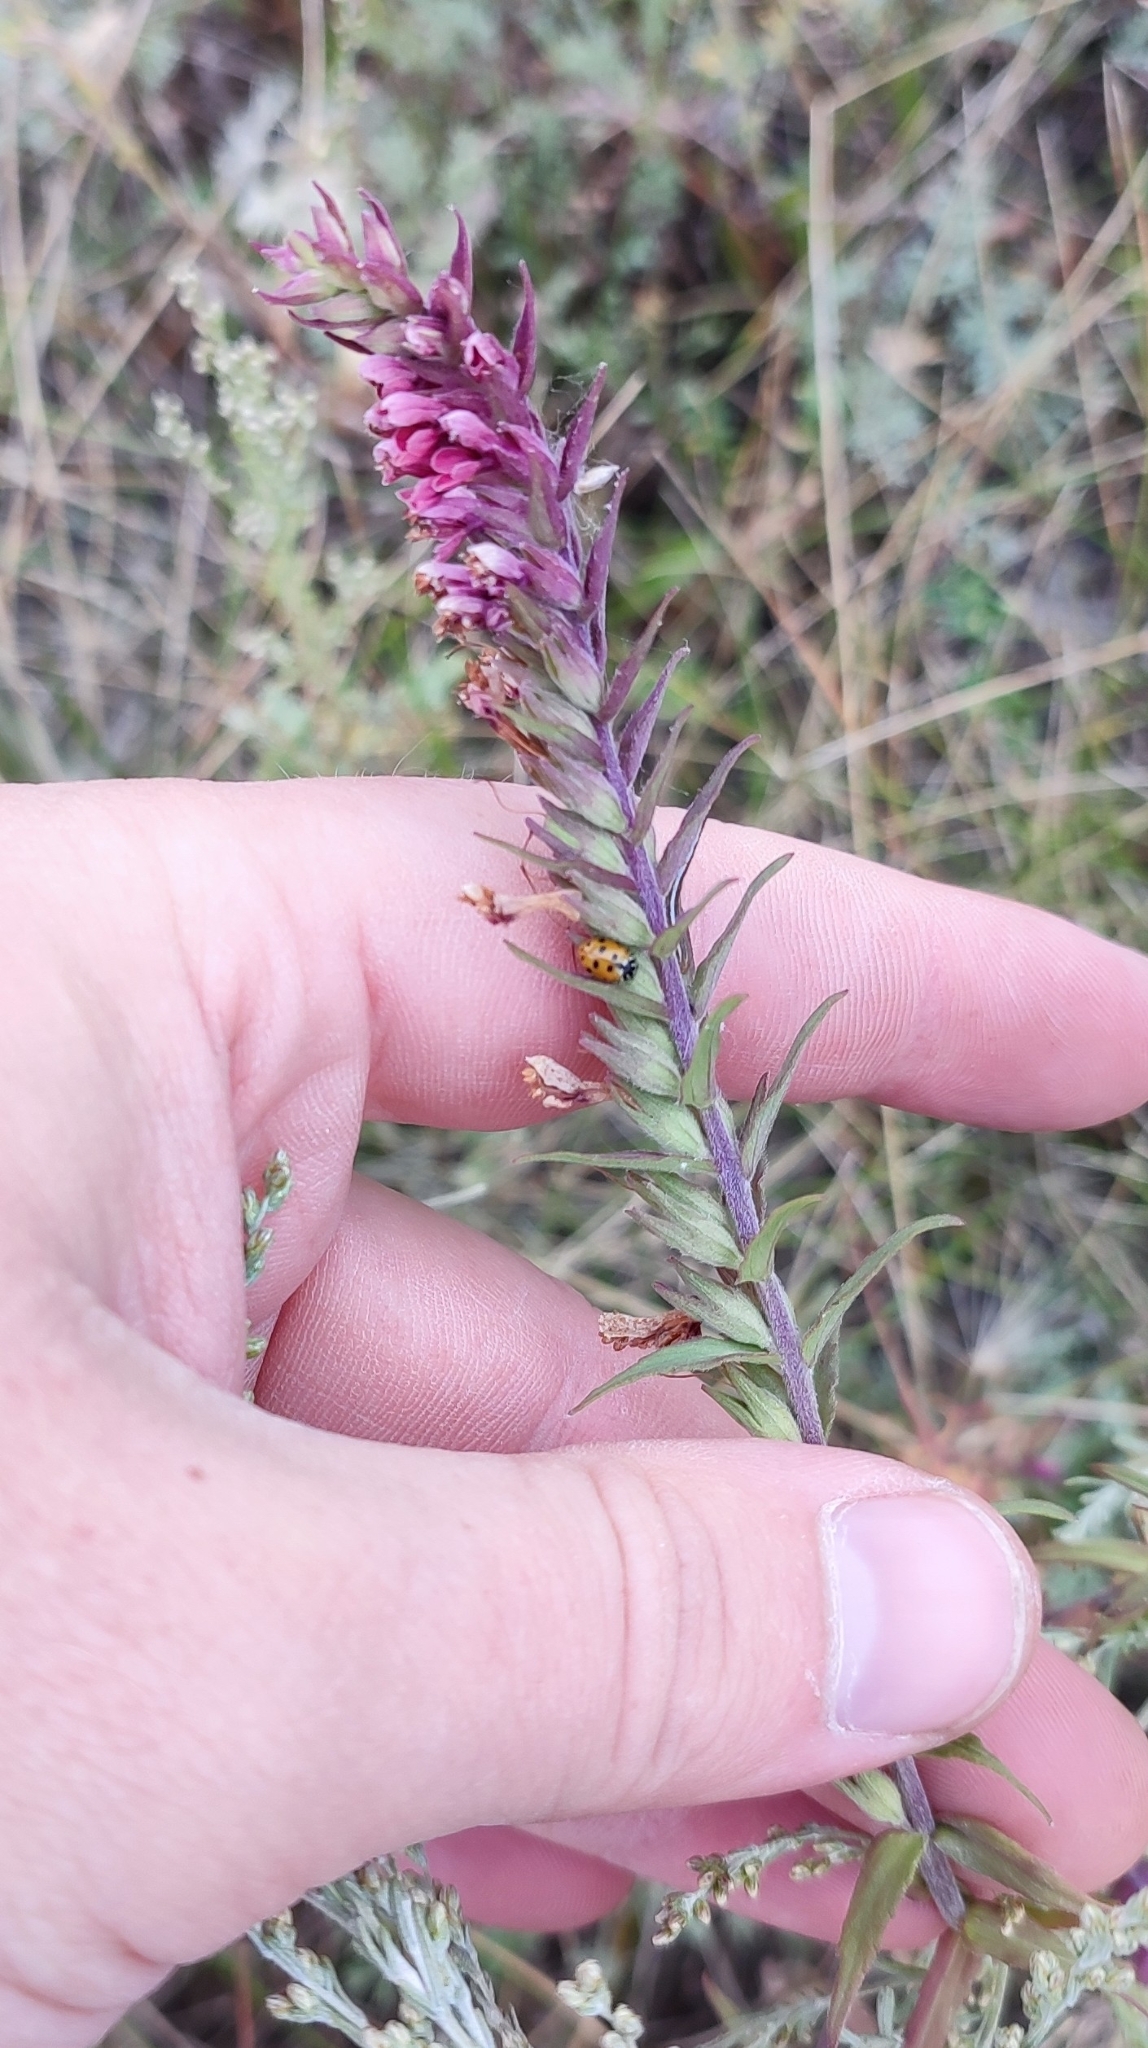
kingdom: Plantae
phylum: Tracheophyta
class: Magnoliopsida
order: Lamiales
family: Orobanchaceae
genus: Odontites
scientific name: Odontites vulgaris
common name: Broomrape
